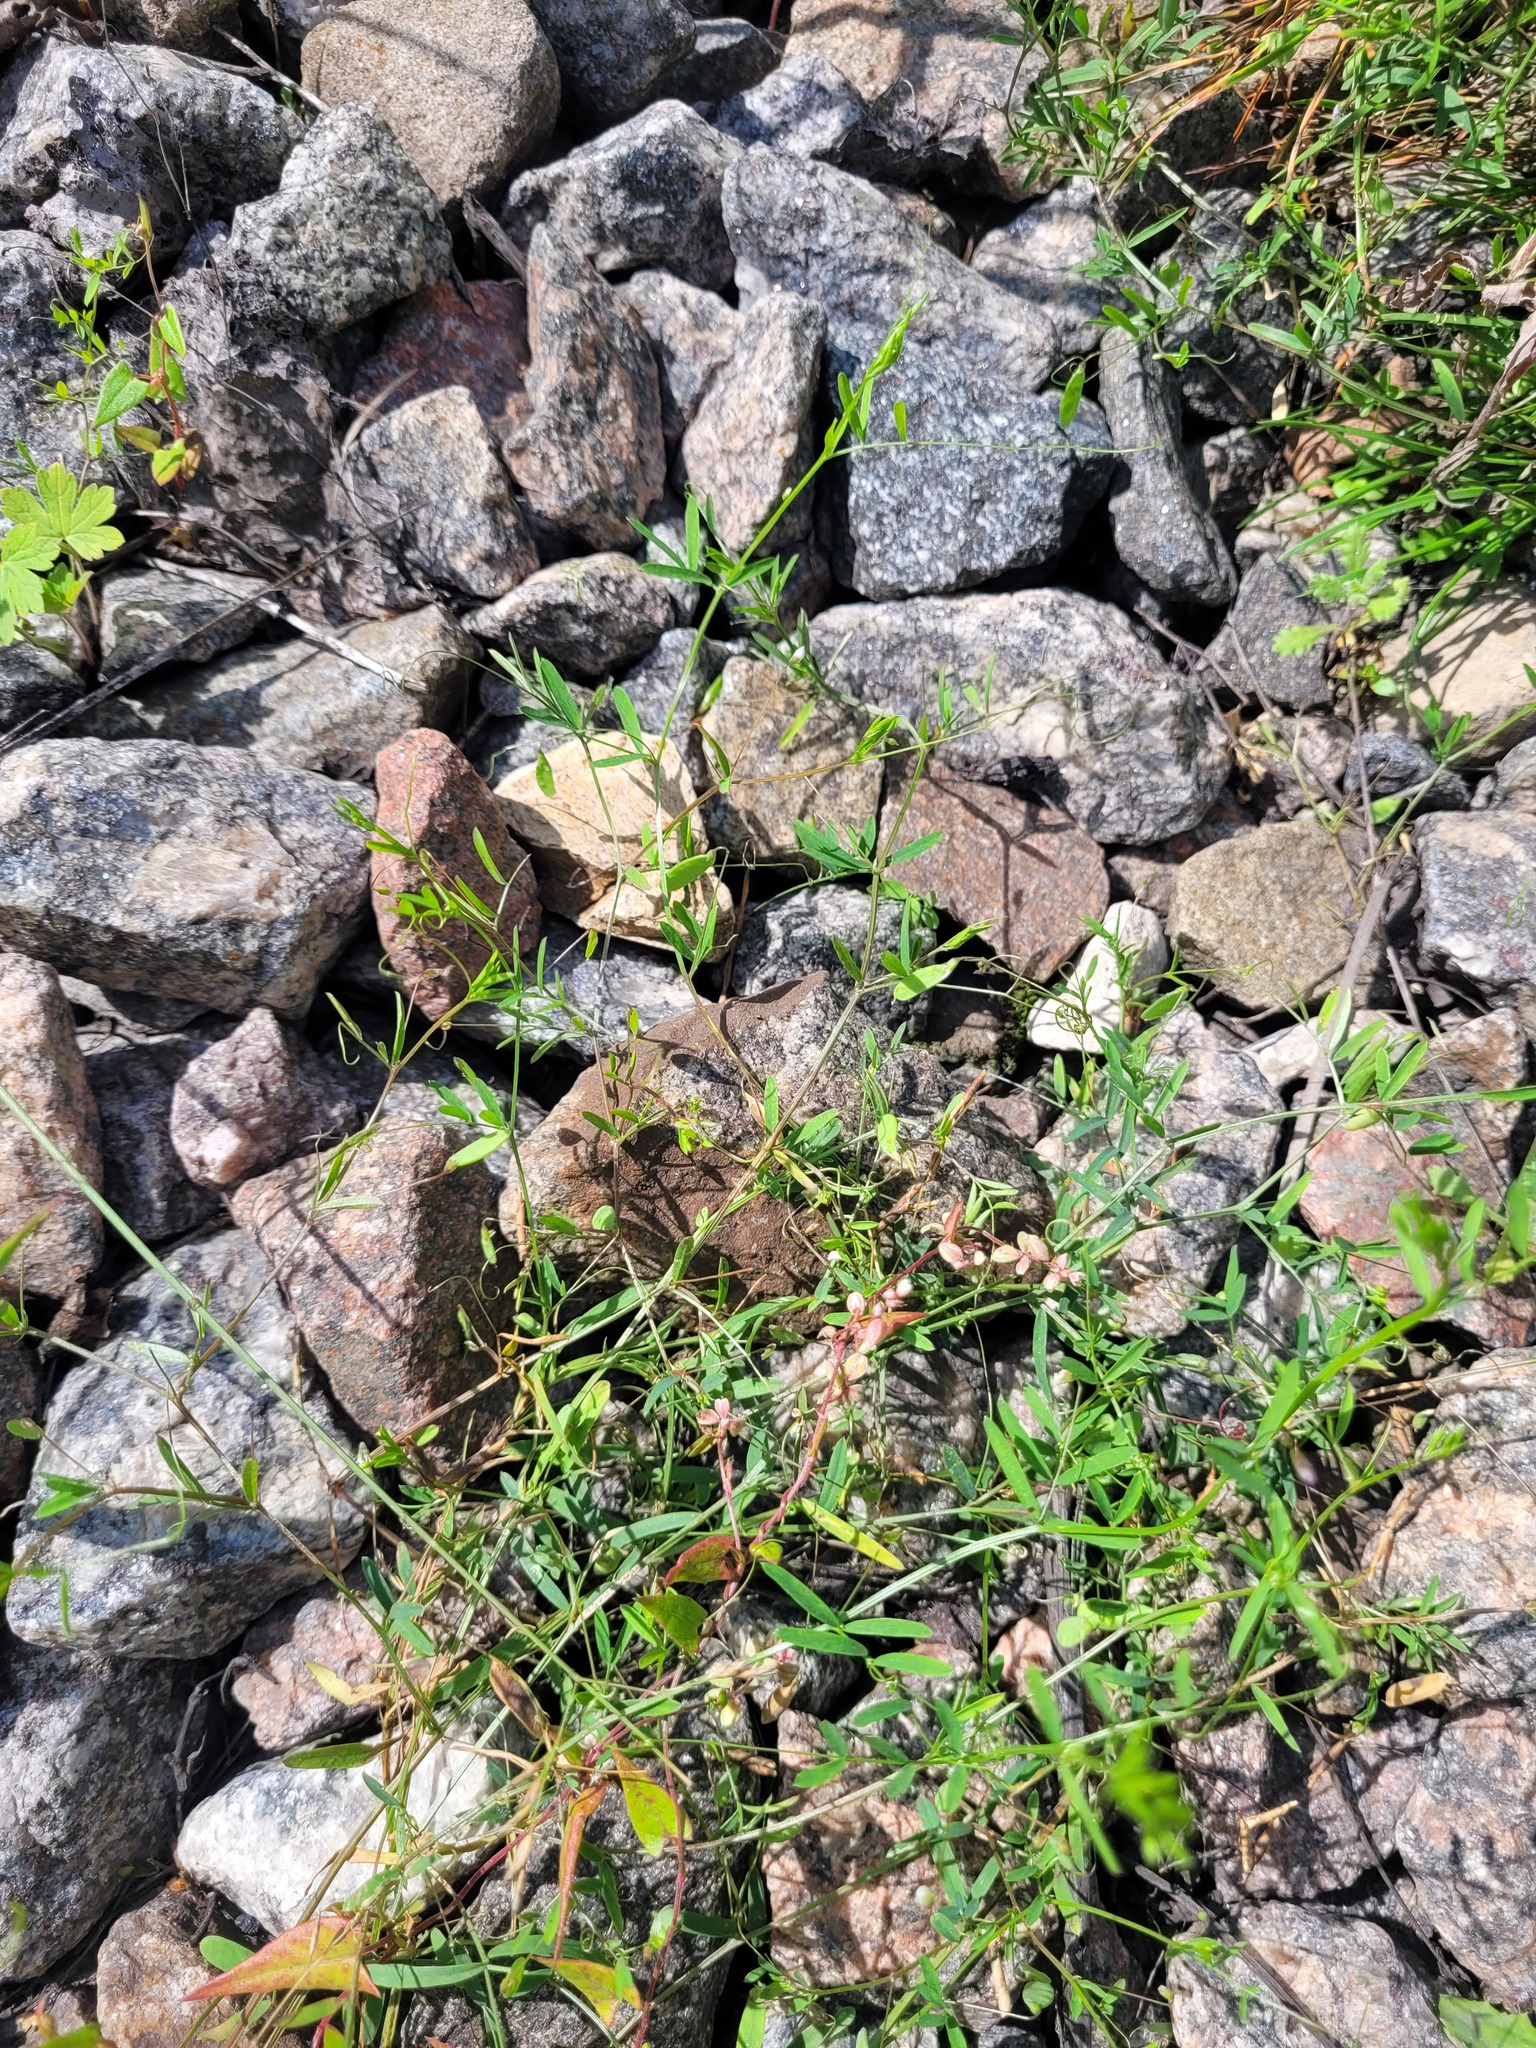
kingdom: Plantae
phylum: Tracheophyta
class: Magnoliopsida
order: Fabales
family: Fabaceae
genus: Vicia
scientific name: Vicia tetrasperma
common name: Smooth tare
